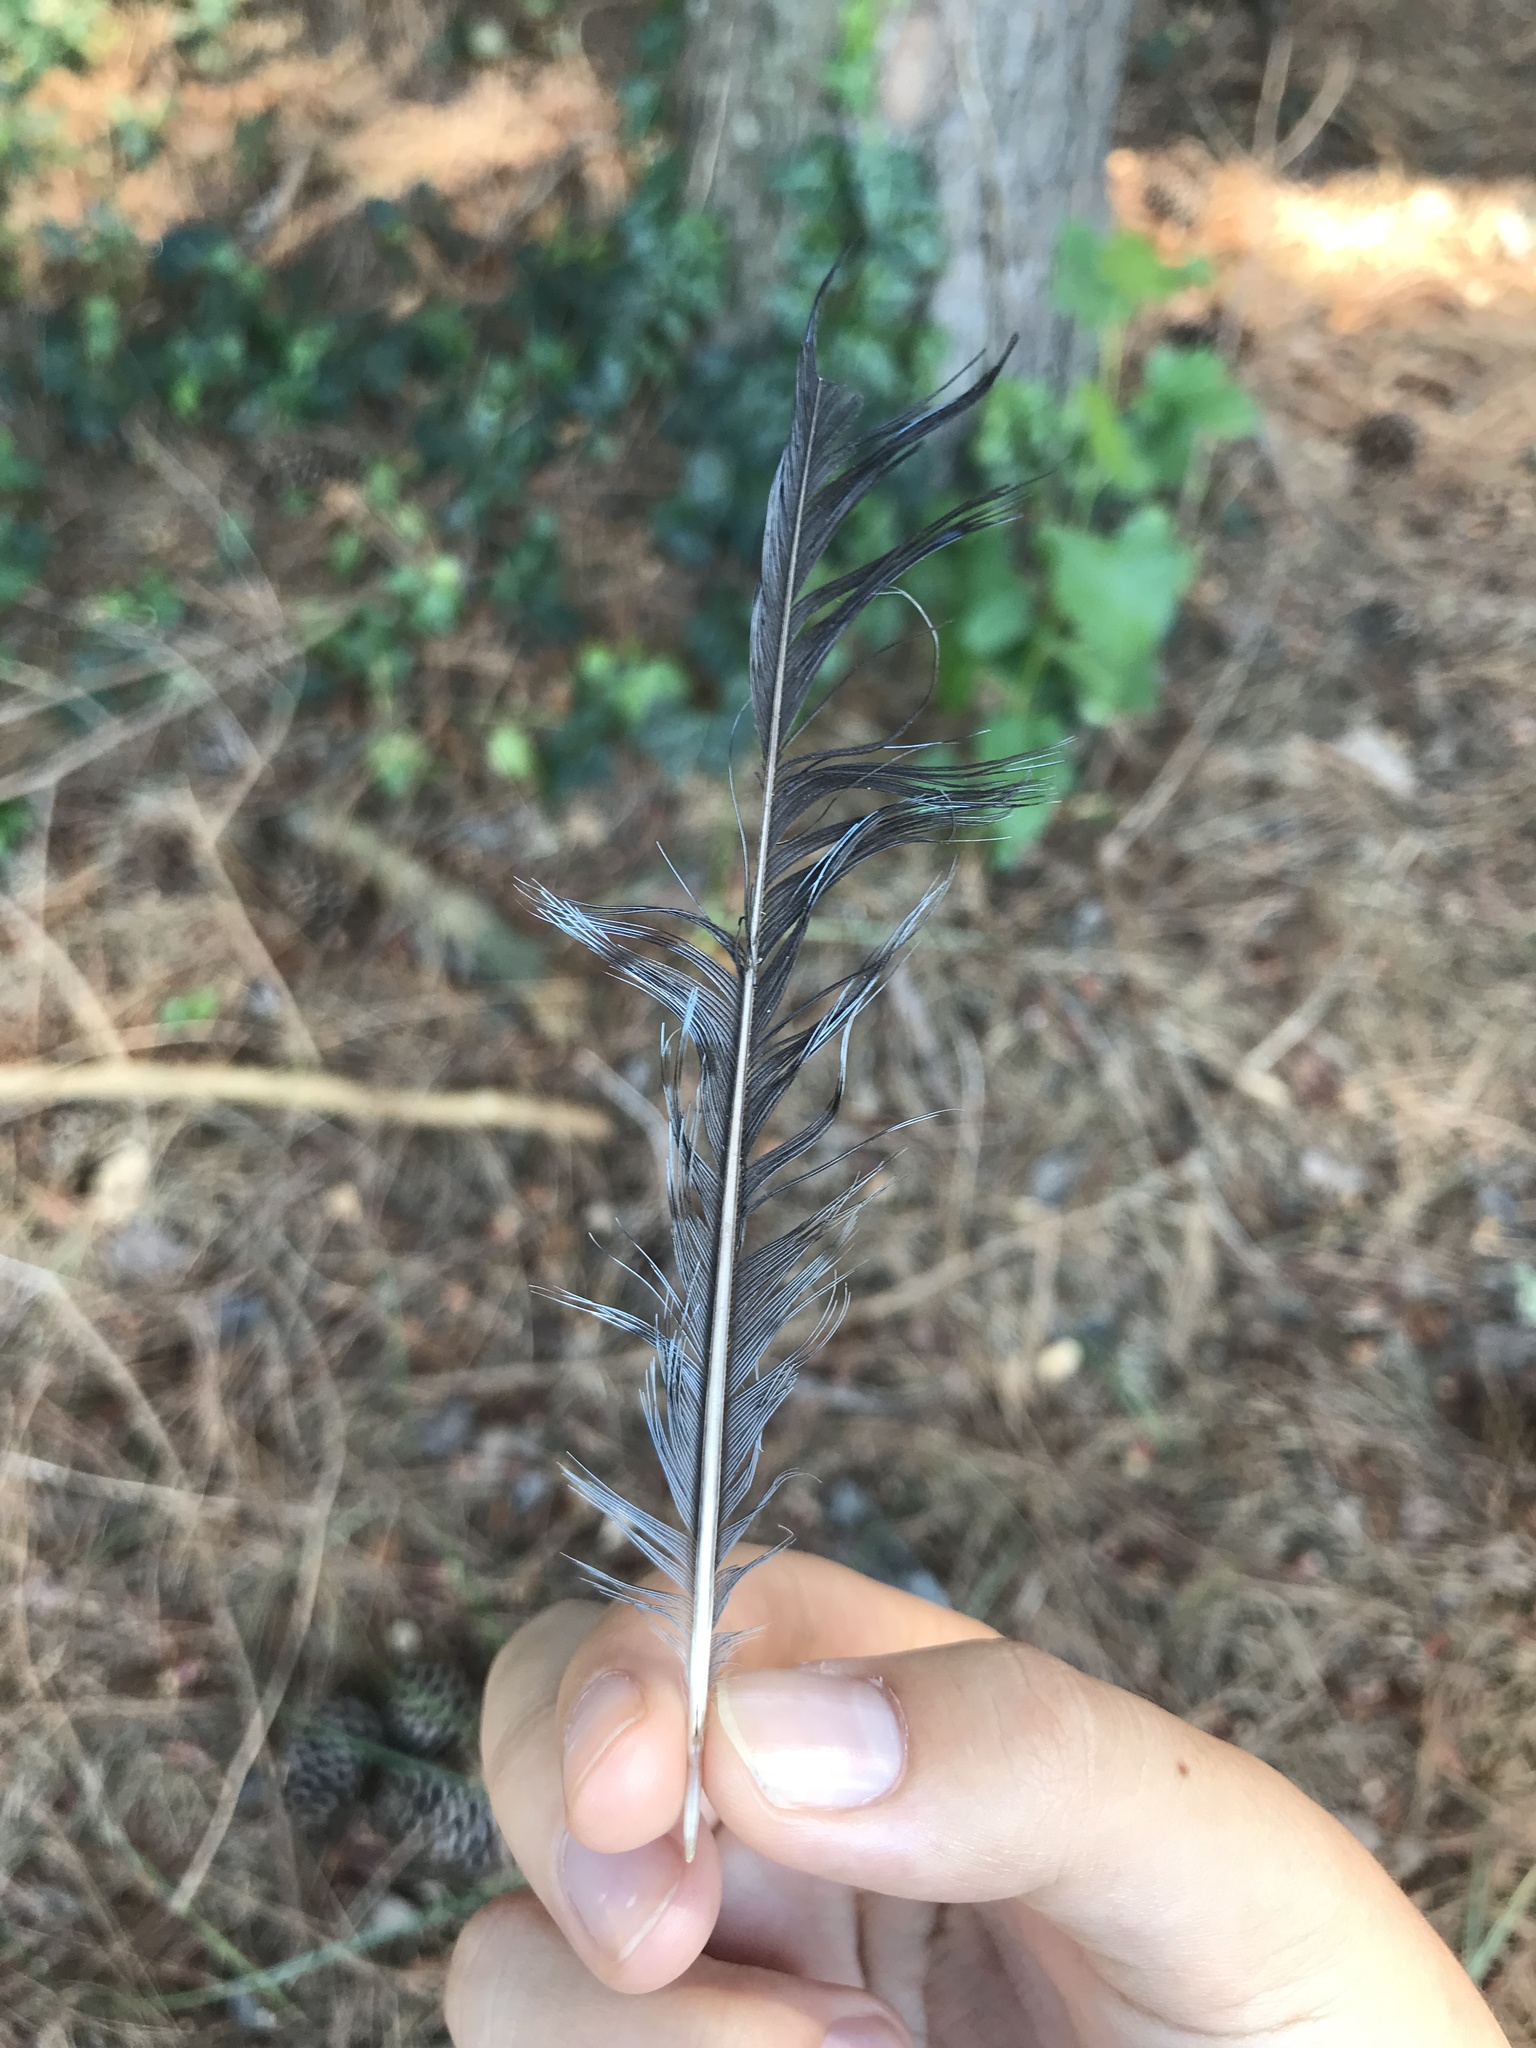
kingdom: Animalia
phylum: Chordata
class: Aves
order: Passeriformes
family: Corvidae
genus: Cyanocitta
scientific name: Cyanocitta cristata
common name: Blue jay
